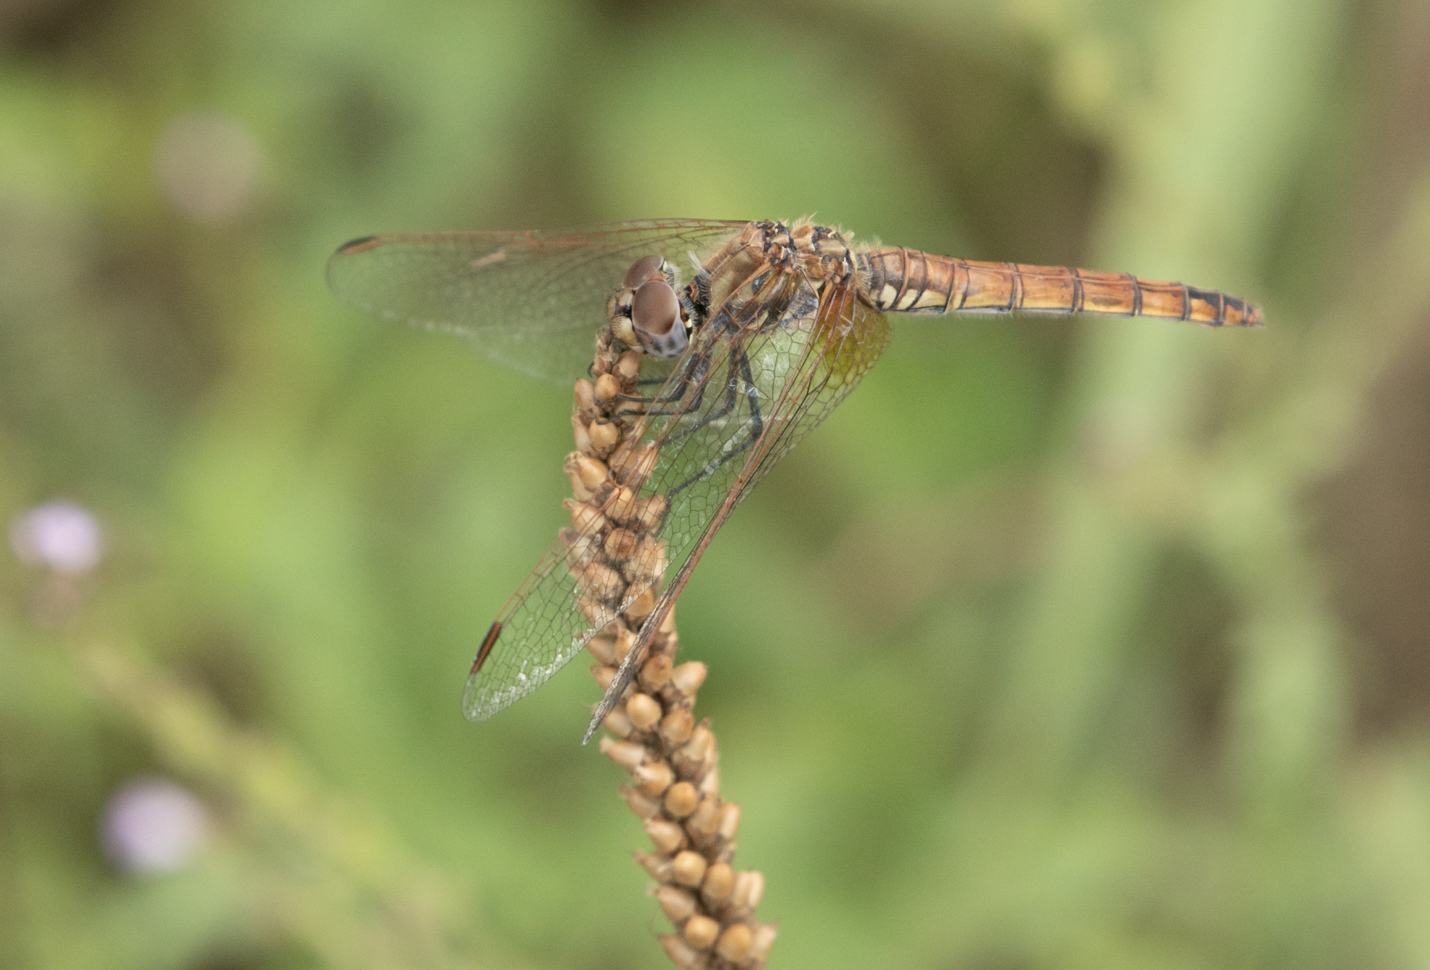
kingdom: Animalia
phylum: Arthropoda
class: Insecta
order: Odonata
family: Libellulidae
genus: Trithemis
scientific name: Trithemis annulata
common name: Violet dropwing
